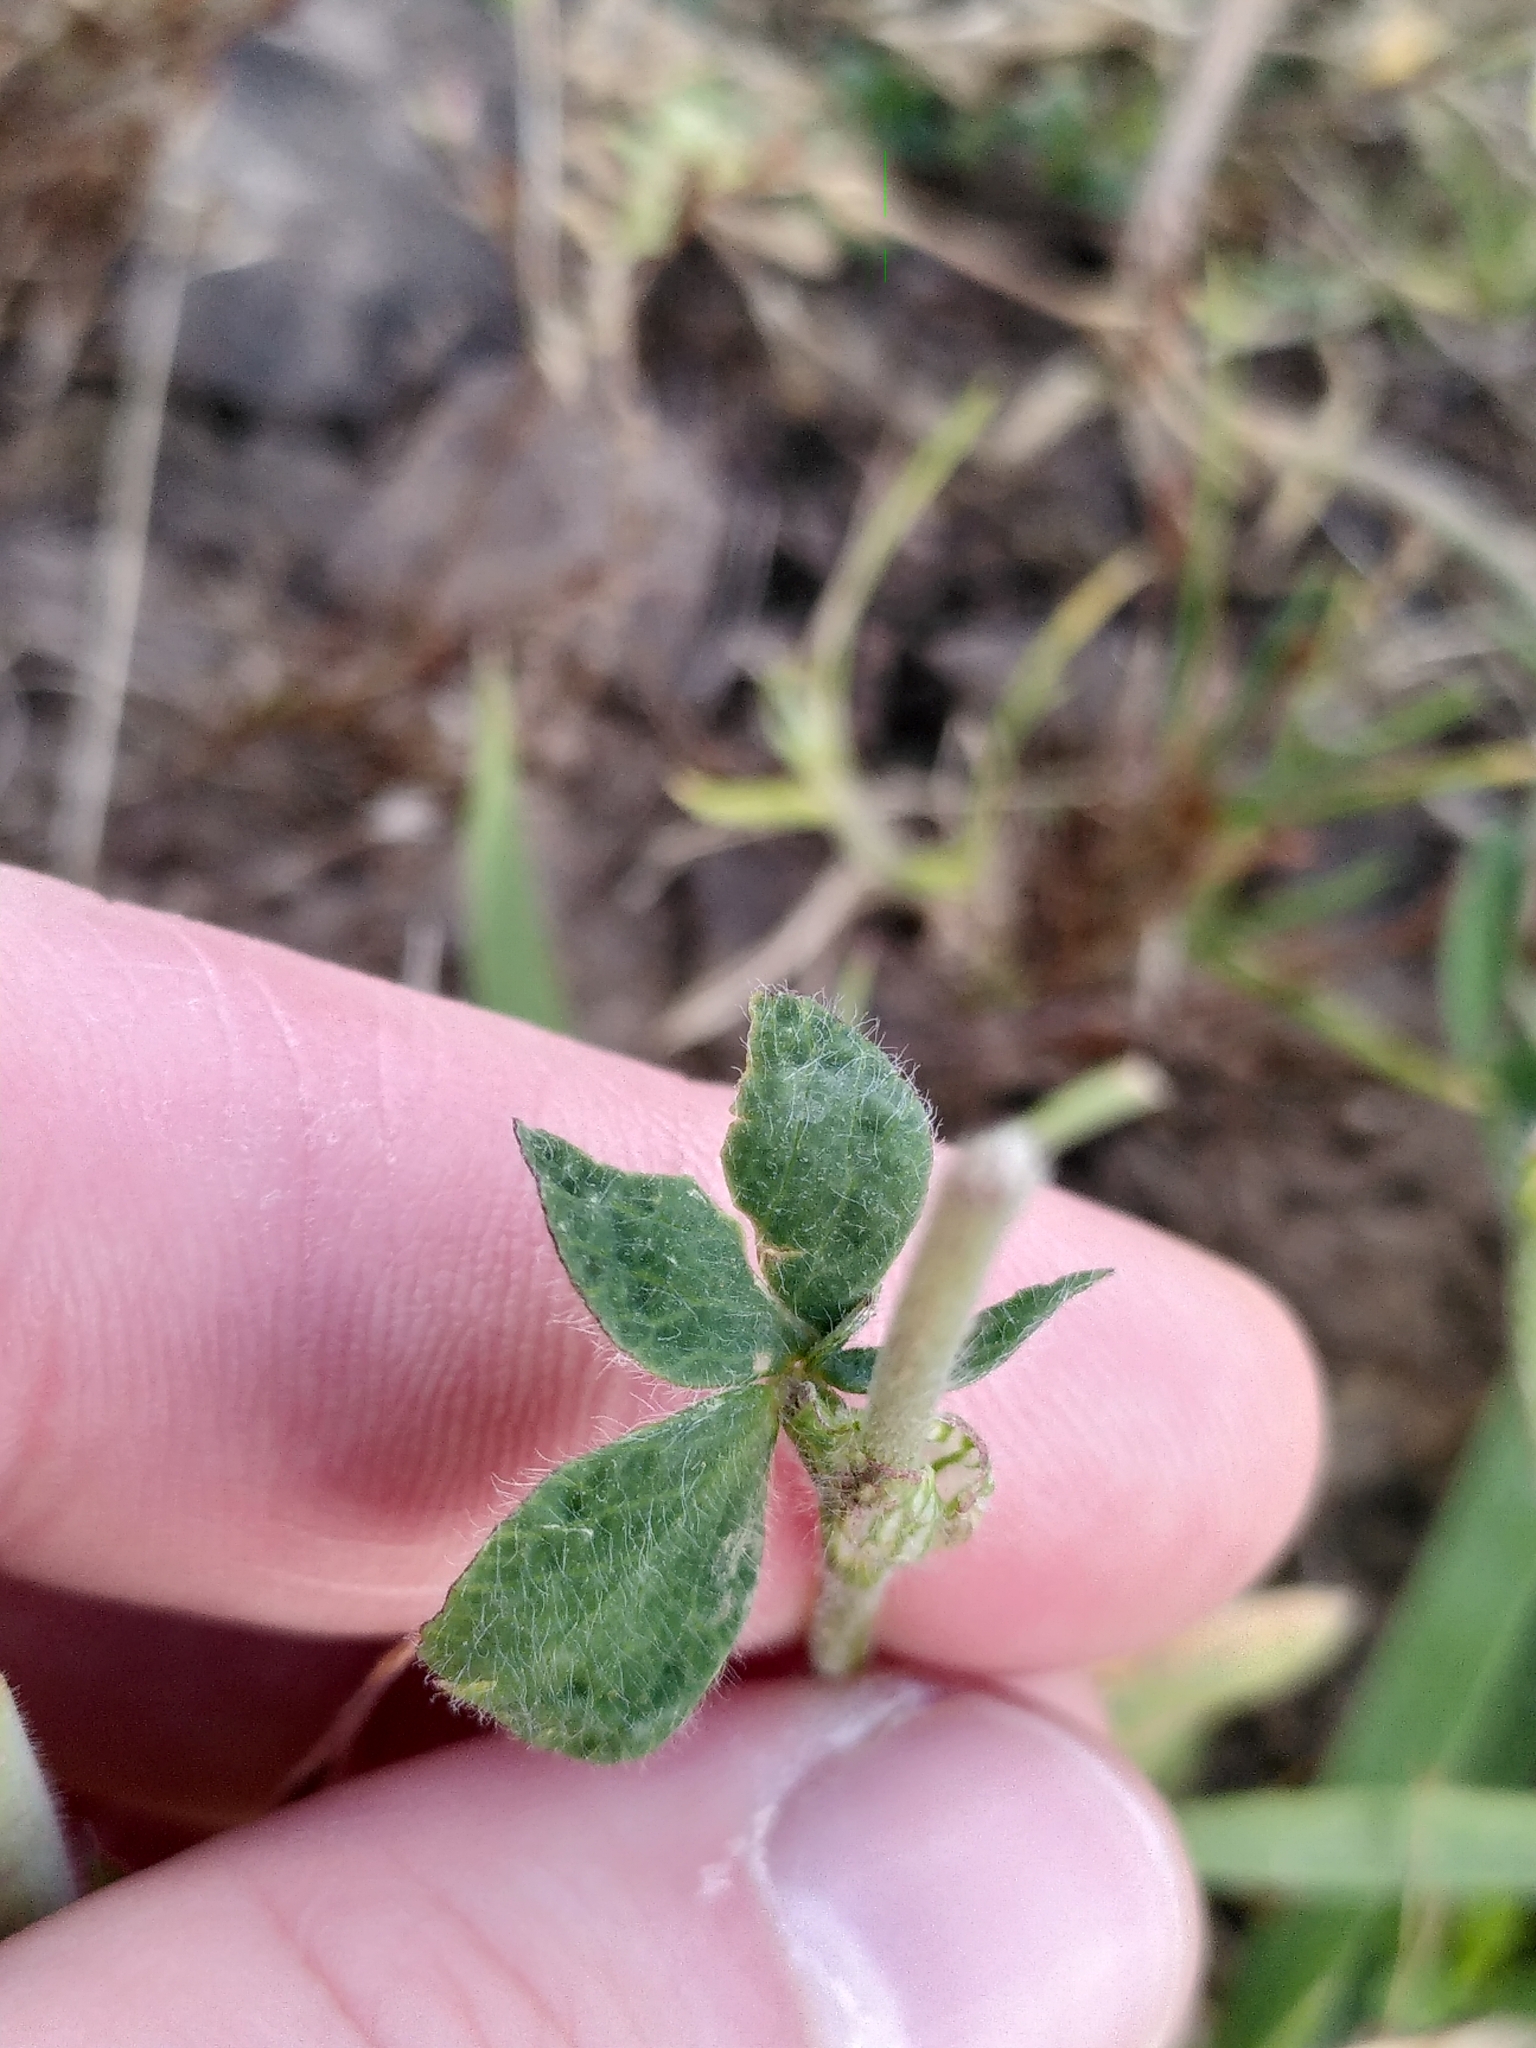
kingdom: Plantae
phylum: Tracheophyta
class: Magnoliopsida
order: Fabales
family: Fabaceae
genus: Trifolium
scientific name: Trifolium incarnatum
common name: Crimson clover
